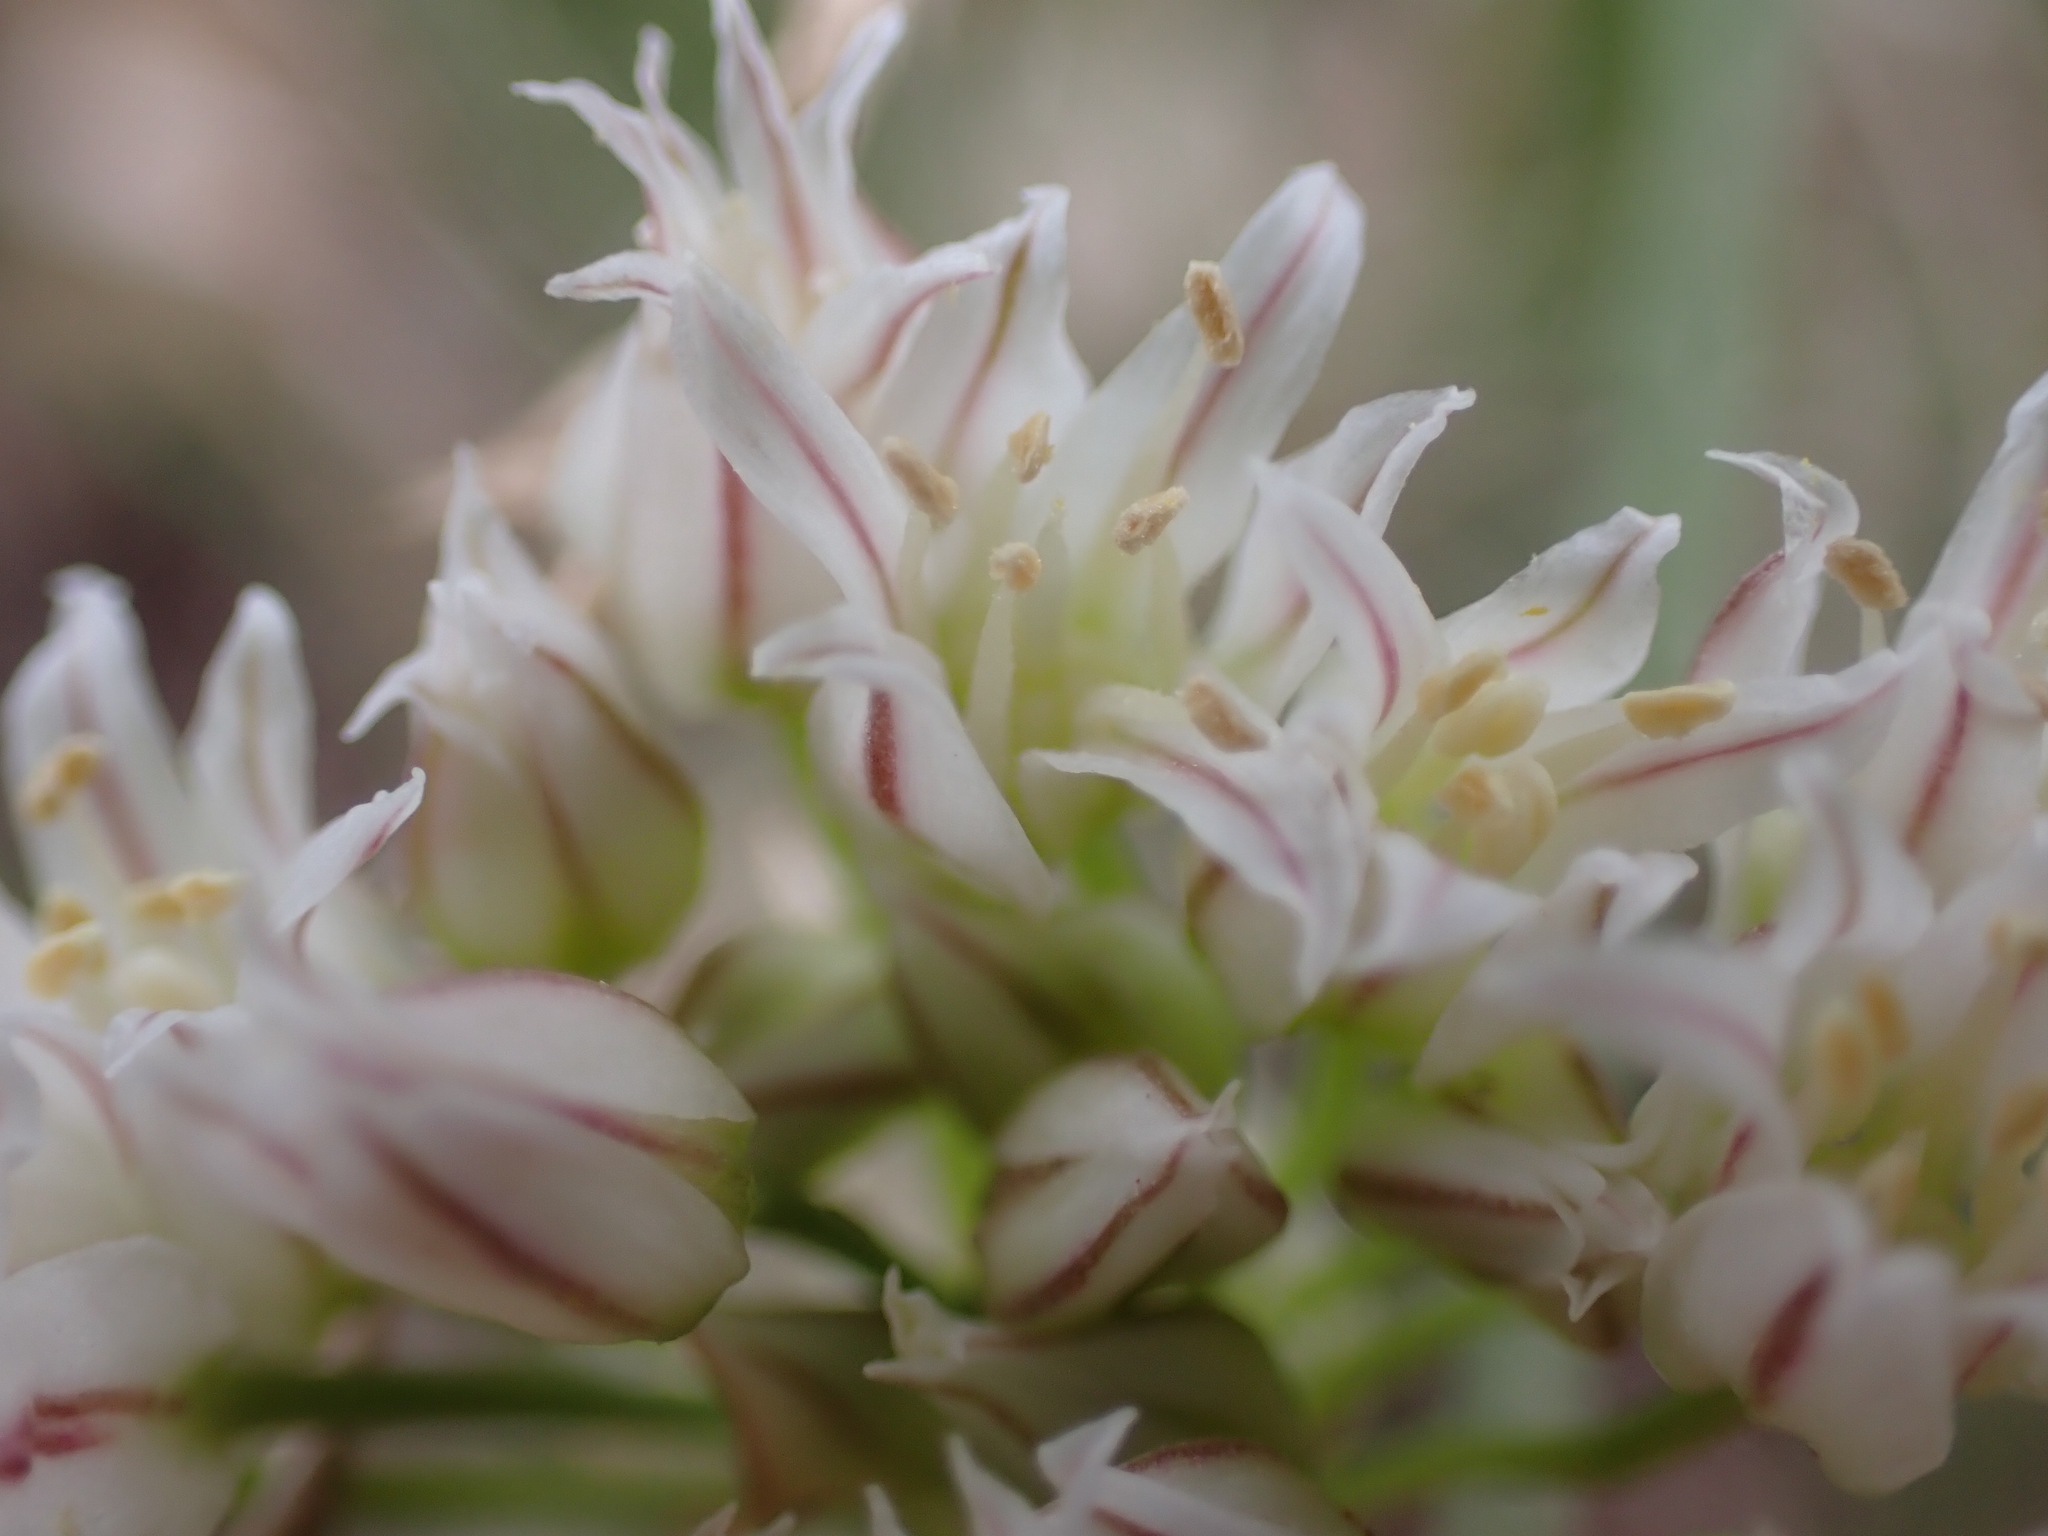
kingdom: Plantae
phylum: Tracheophyta
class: Liliopsida
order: Asparagales
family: Amaryllidaceae
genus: Allium
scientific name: Allium textile
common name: Prairie onion
